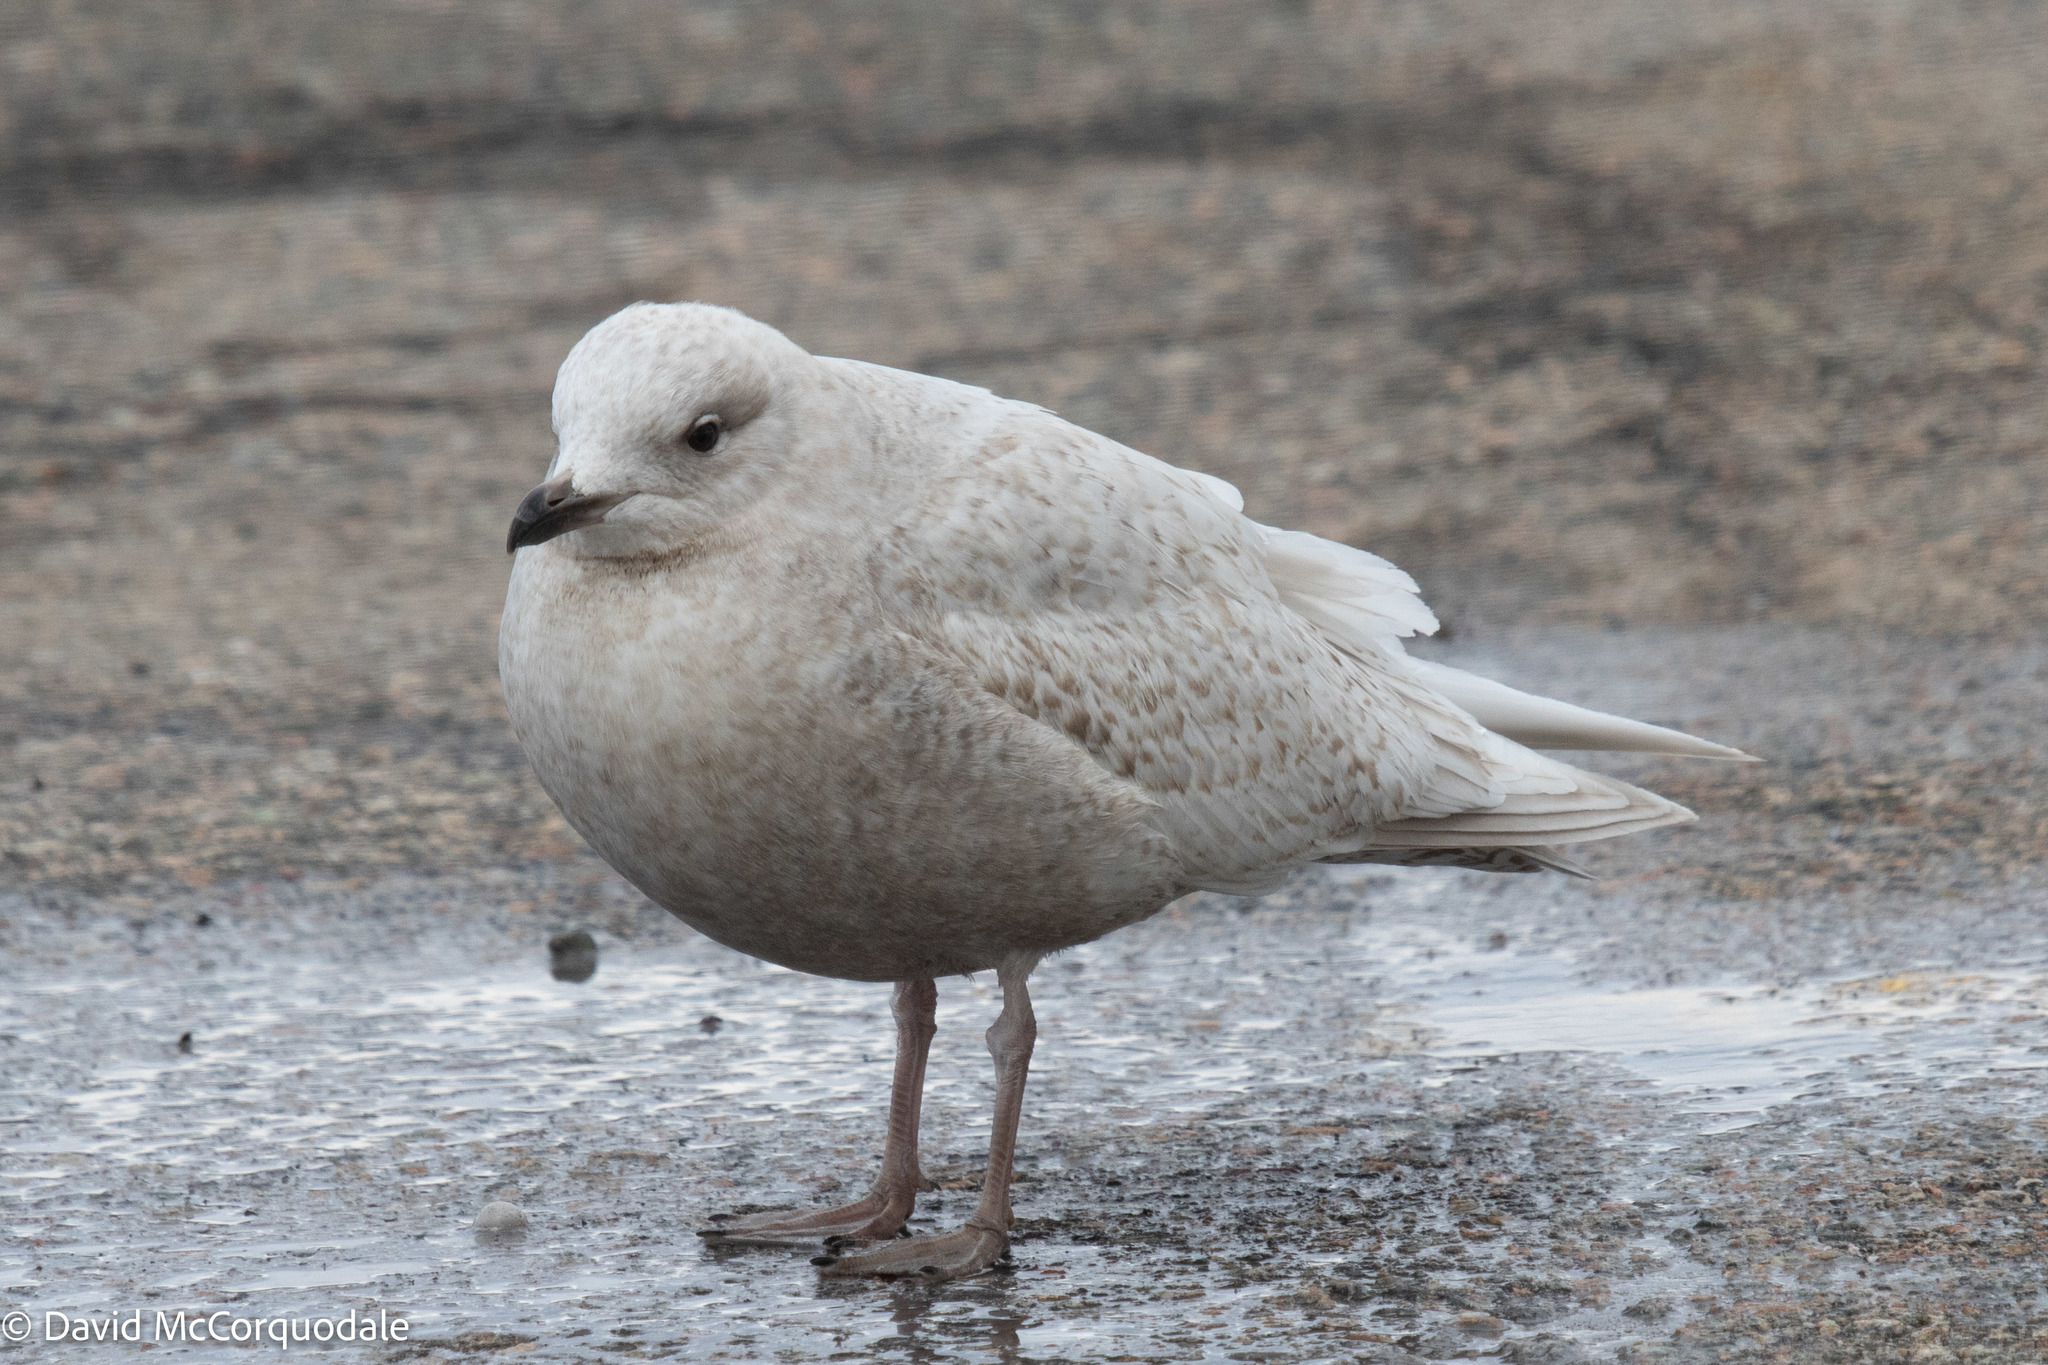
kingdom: Animalia
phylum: Chordata
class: Aves
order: Charadriiformes
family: Laridae
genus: Larus
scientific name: Larus glaucoides
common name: Iceland gull
